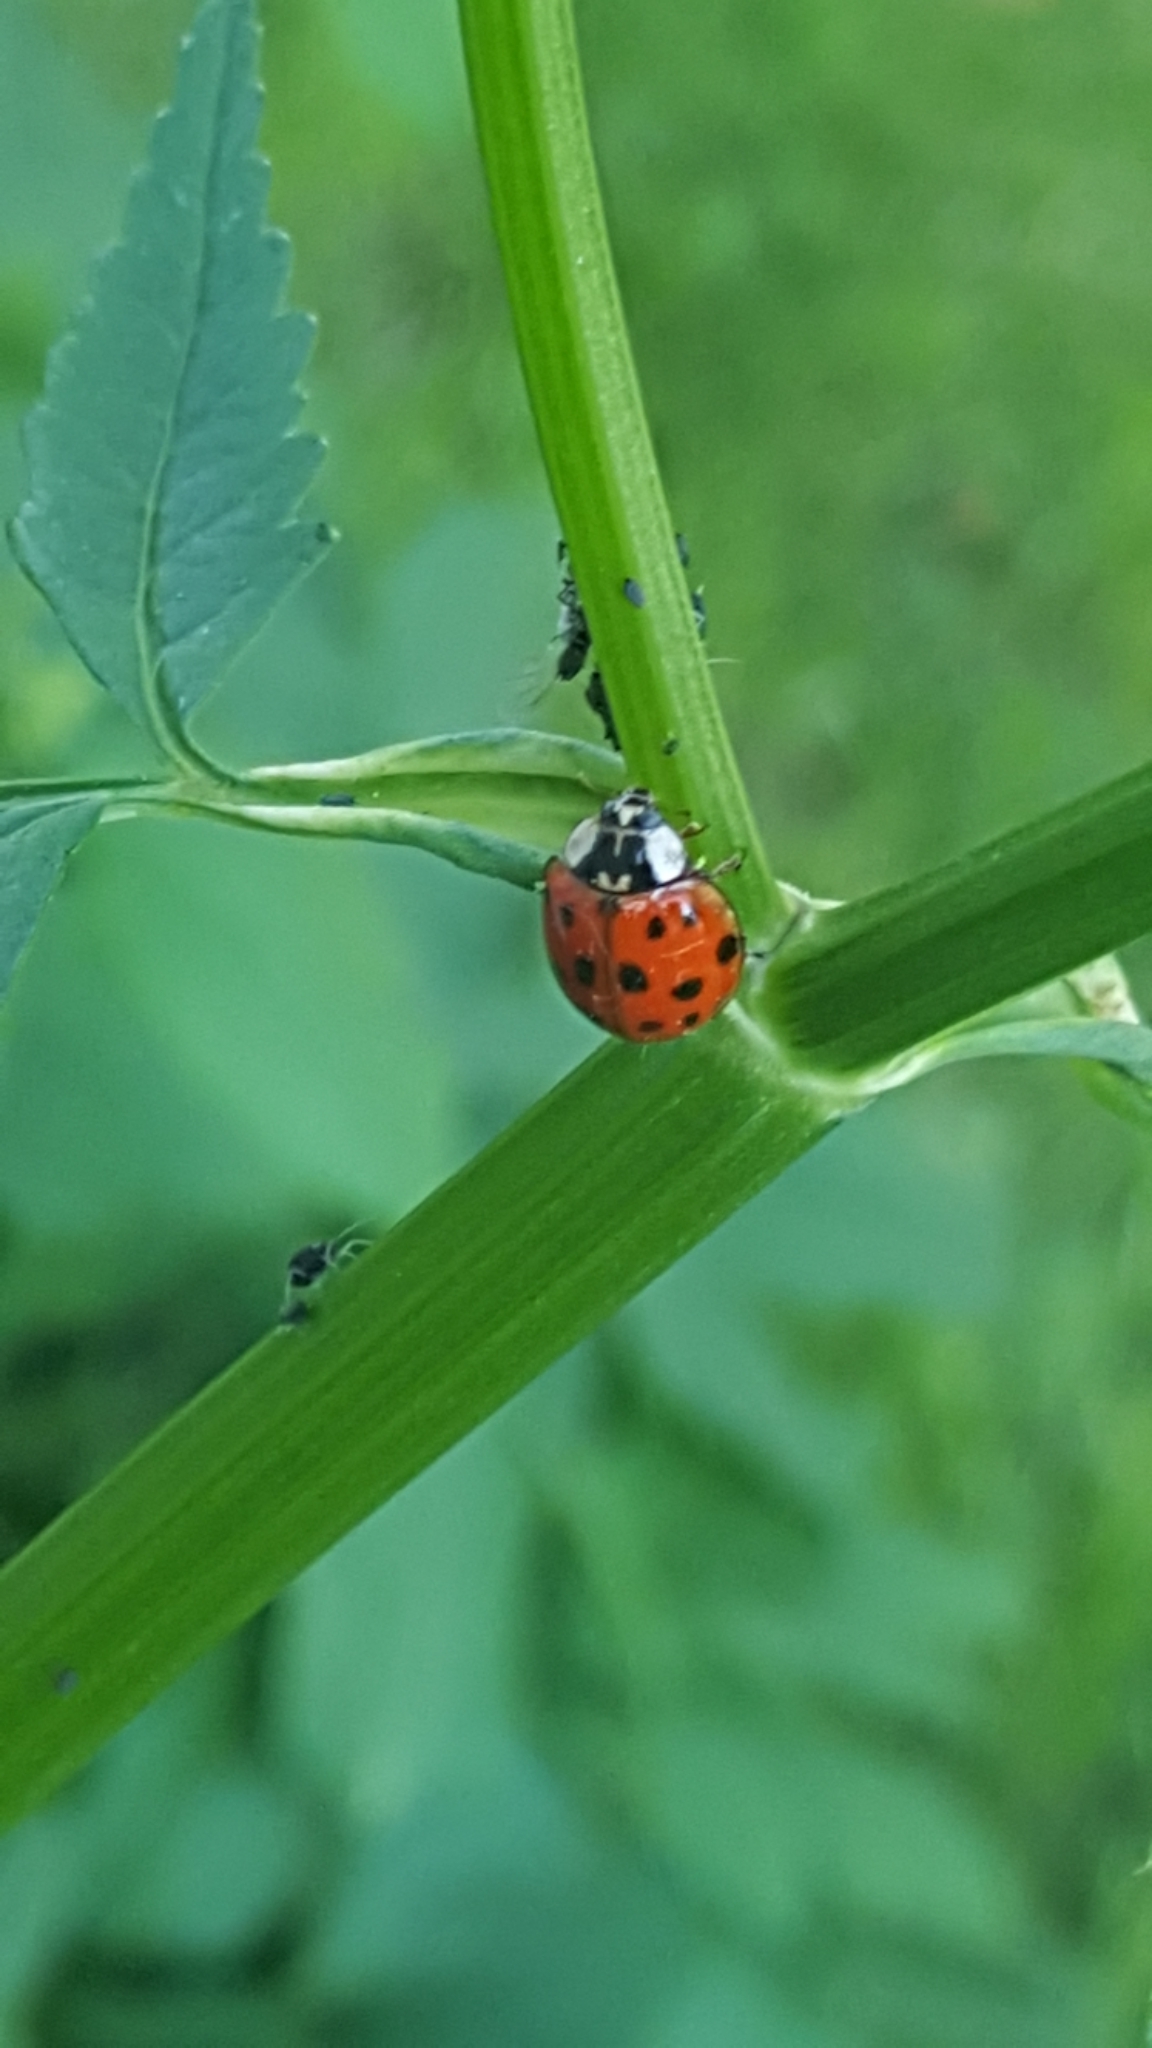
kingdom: Animalia
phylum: Arthropoda
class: Insecta
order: Coleoptera
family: Coccinellidae
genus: Harmonia
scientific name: Harmonia axyridis
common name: Harlequin ladybird
